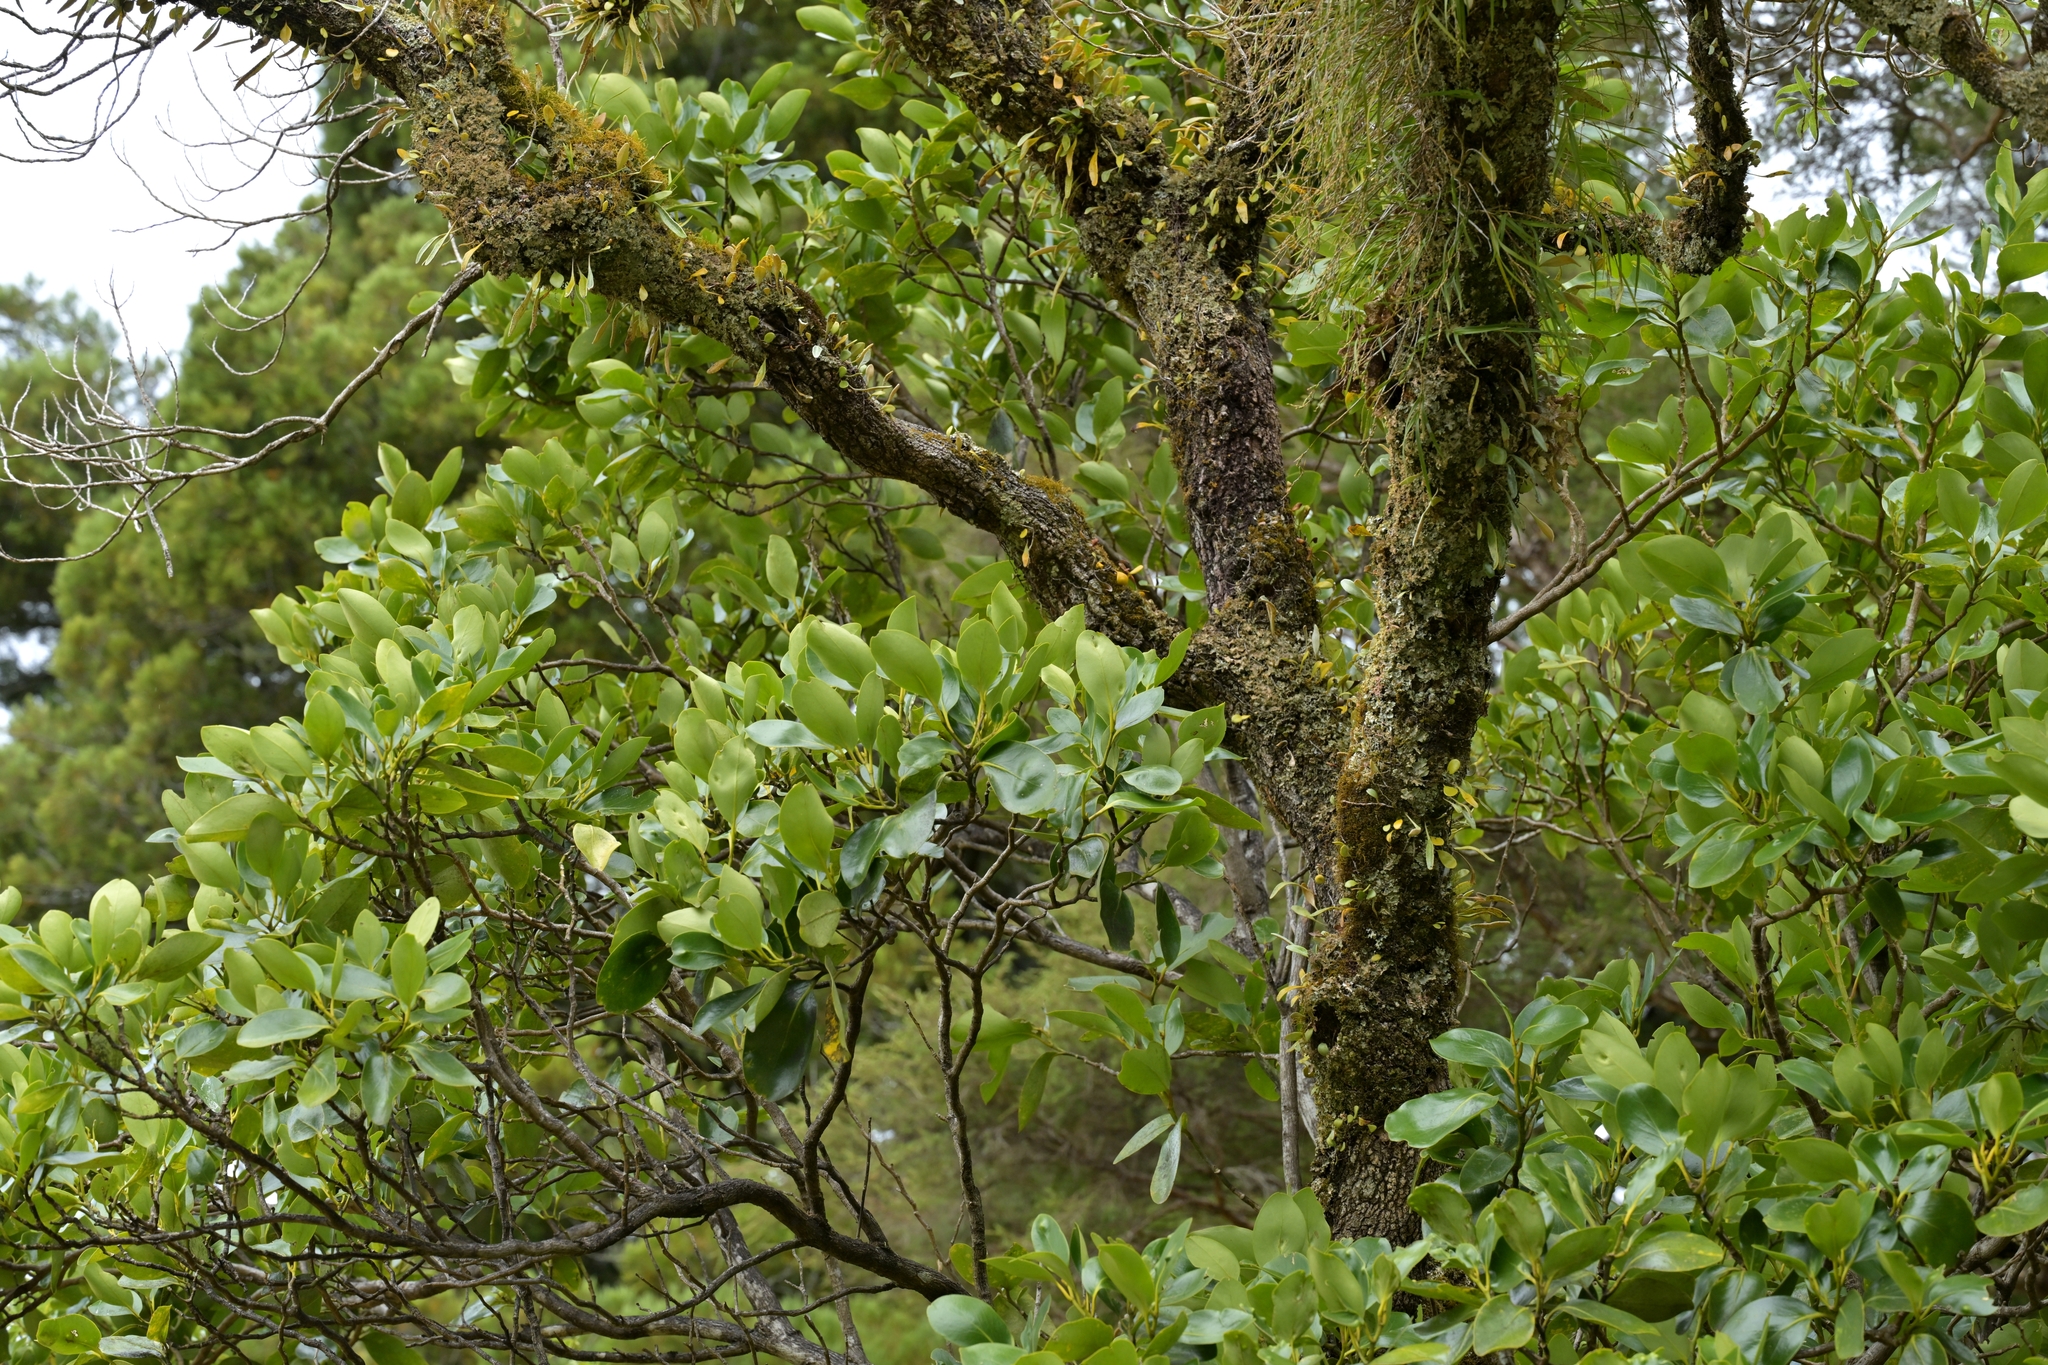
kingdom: Plantae
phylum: Tracheophyta
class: Magnoliopsida
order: Apiales
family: Griseliniaceae
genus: Griselinia
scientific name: Griselinia littoralis
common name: New zealand broadleaf
